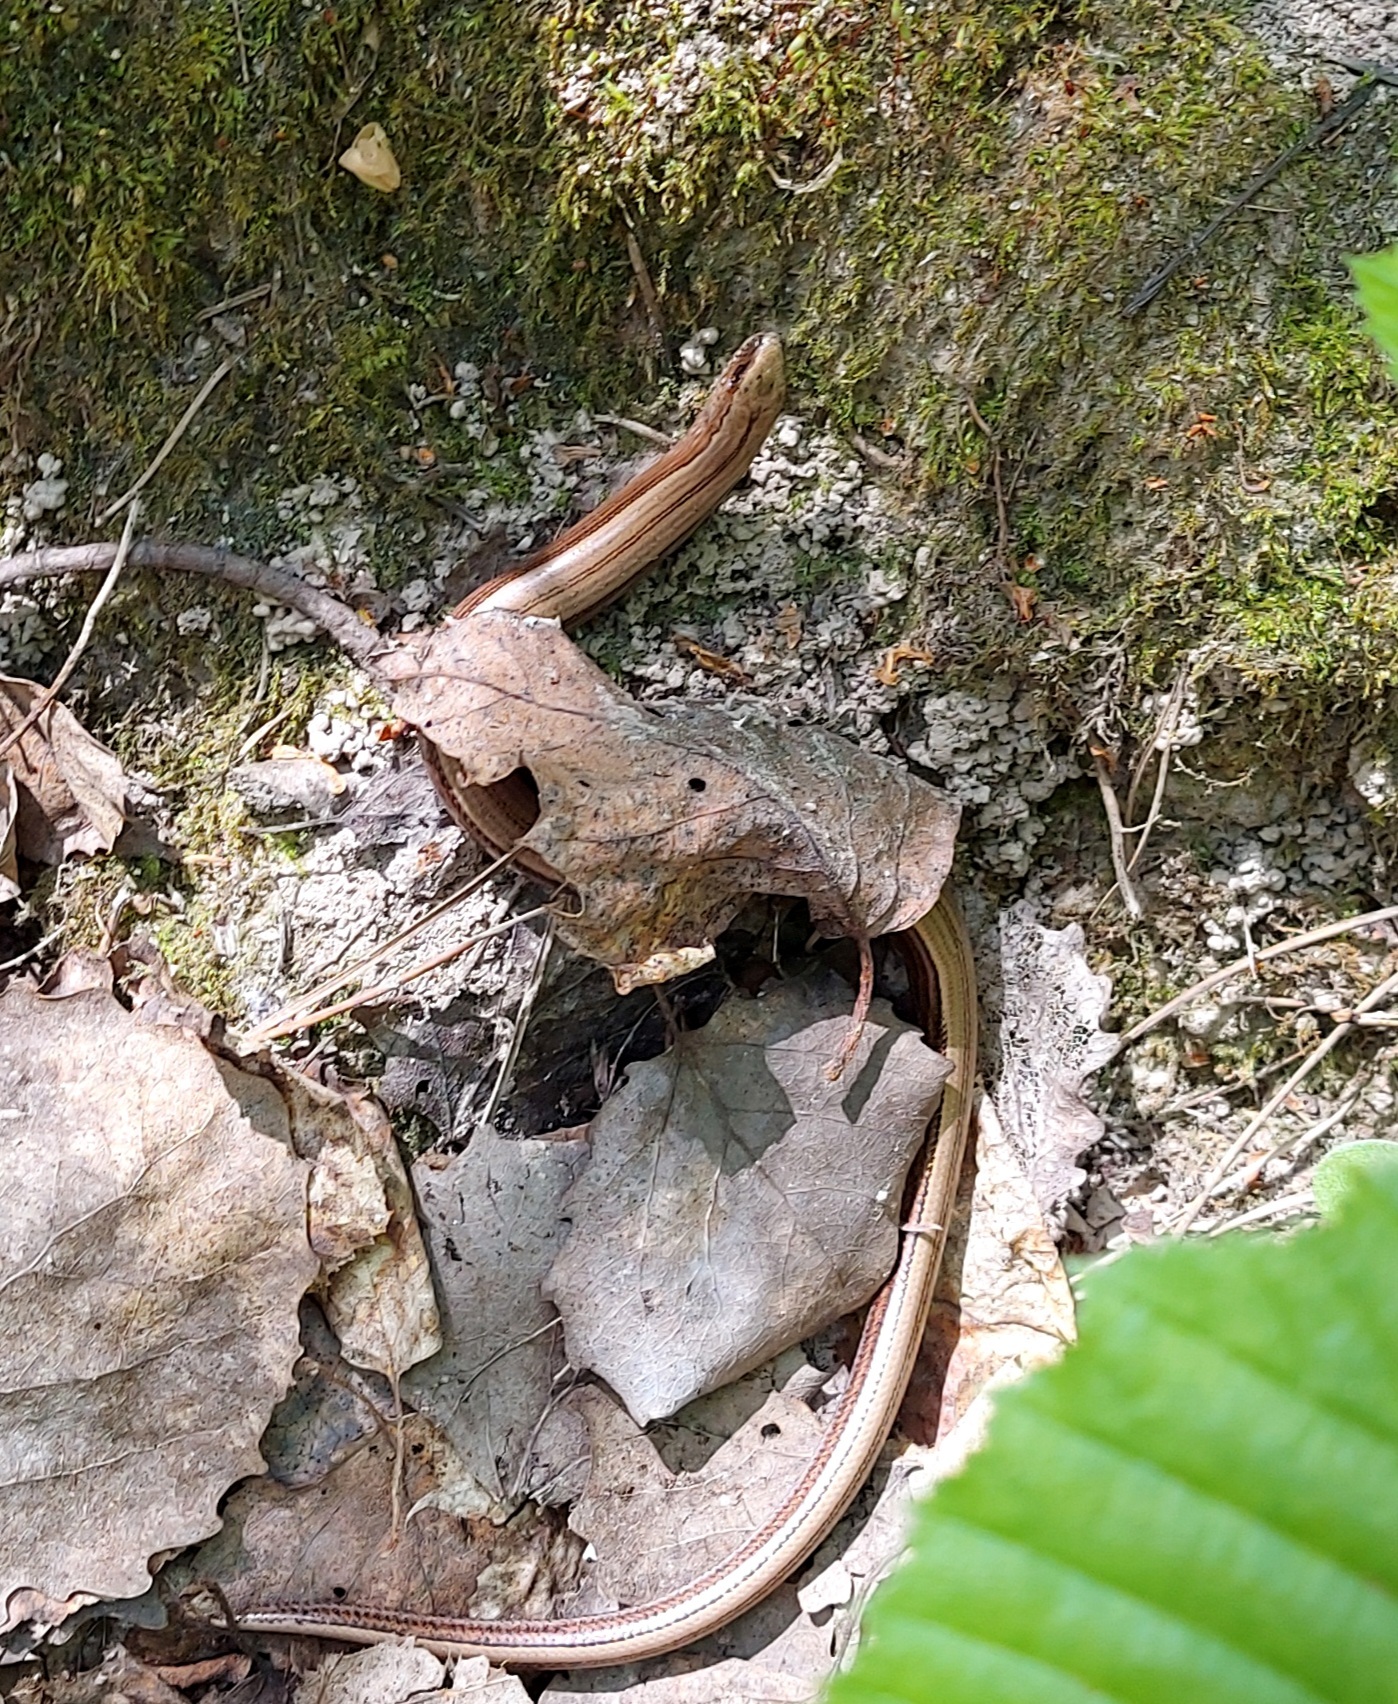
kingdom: Animalia
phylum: Chordata
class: Squamata
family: Anguidae
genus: Anguis
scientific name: Anguis colchica
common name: Slow worm
